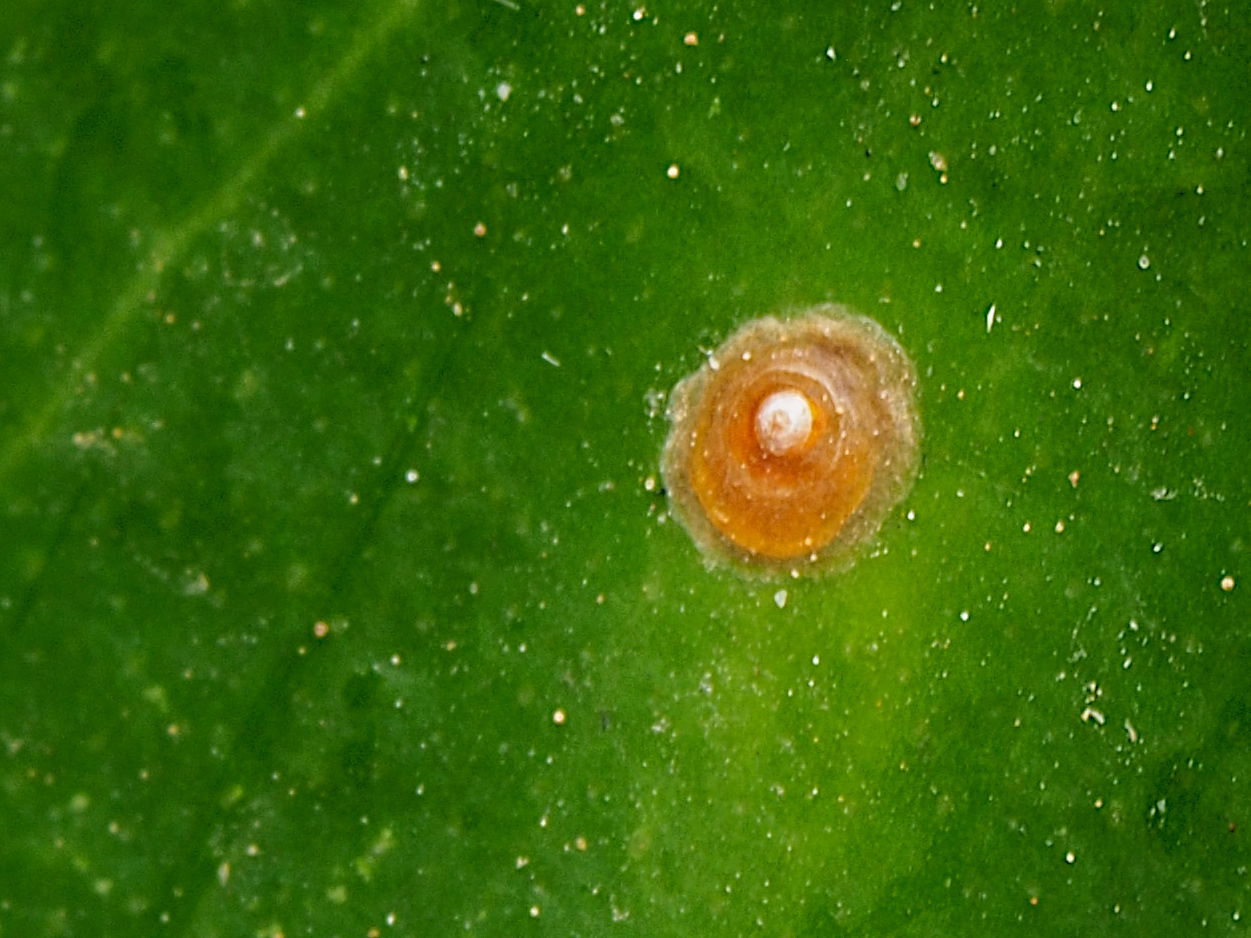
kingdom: Animalia
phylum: Arthropoda
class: Insecta
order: Hemiptera
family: Diaspididae
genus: Aonidiella
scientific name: Aonidiella aurantii
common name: California red scale
